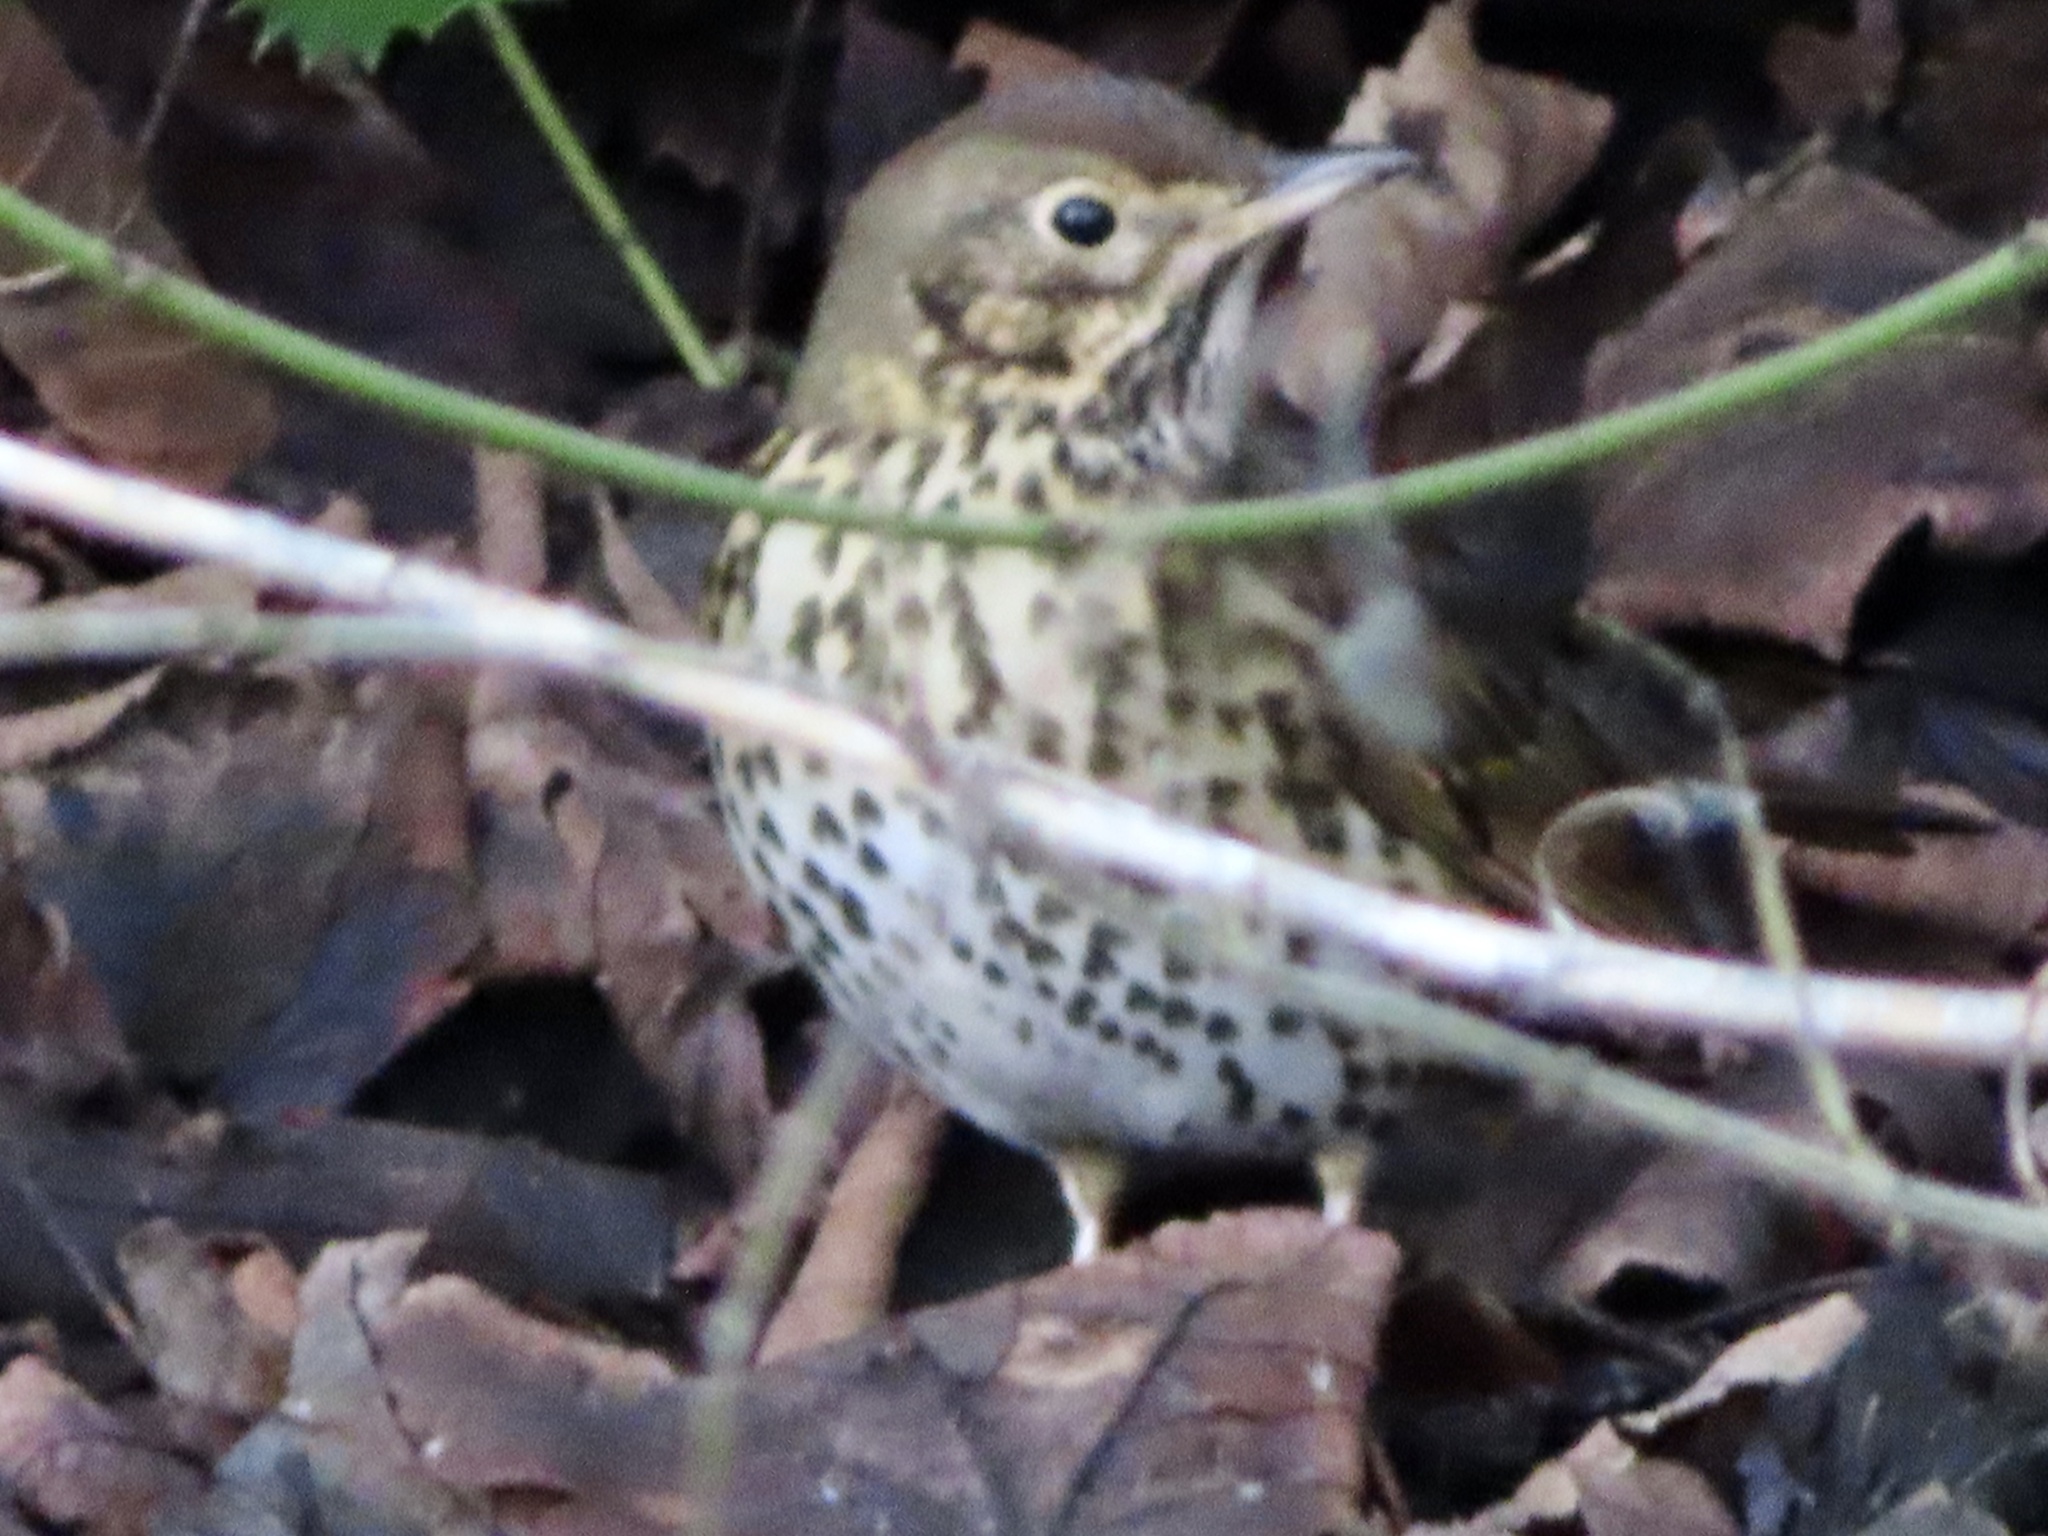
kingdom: Animalia
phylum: Chordata
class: Aves
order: Passeriformes
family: Turdidae
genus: Turdus
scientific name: Turdus philomelos
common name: Song thrush
